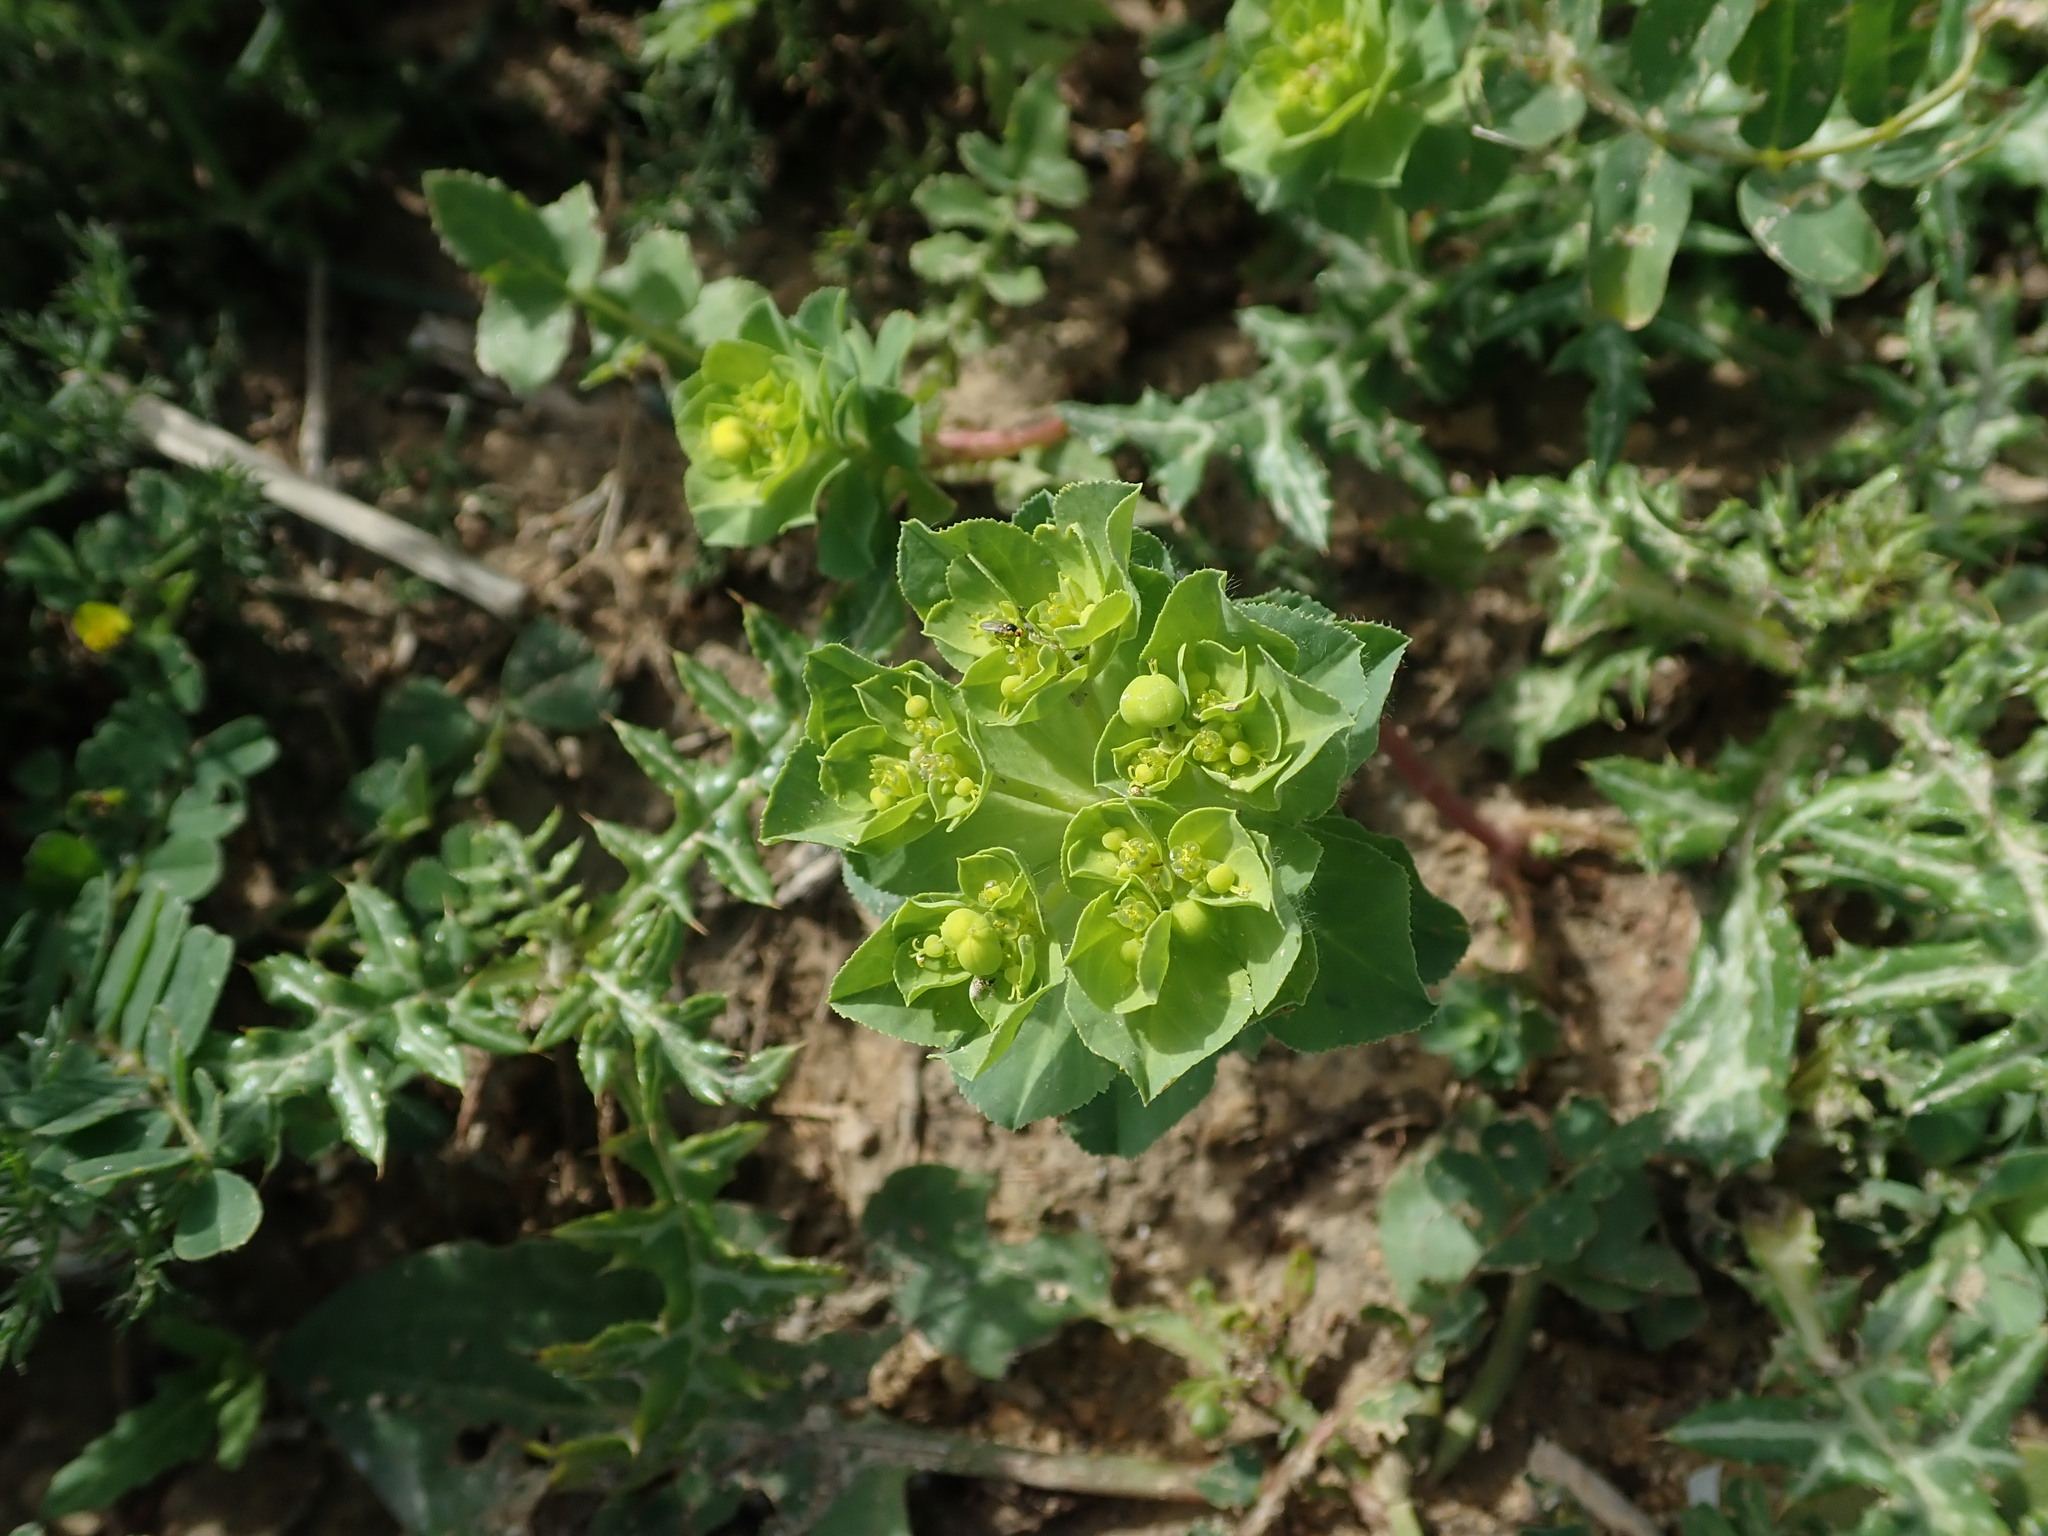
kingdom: Plantae
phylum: Tracheophyta
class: Magnoliopsida
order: Malpighiales
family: Euphorbiaceae
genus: Euphorbia
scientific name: Euphorbia helioscopia
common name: Sun spurge
